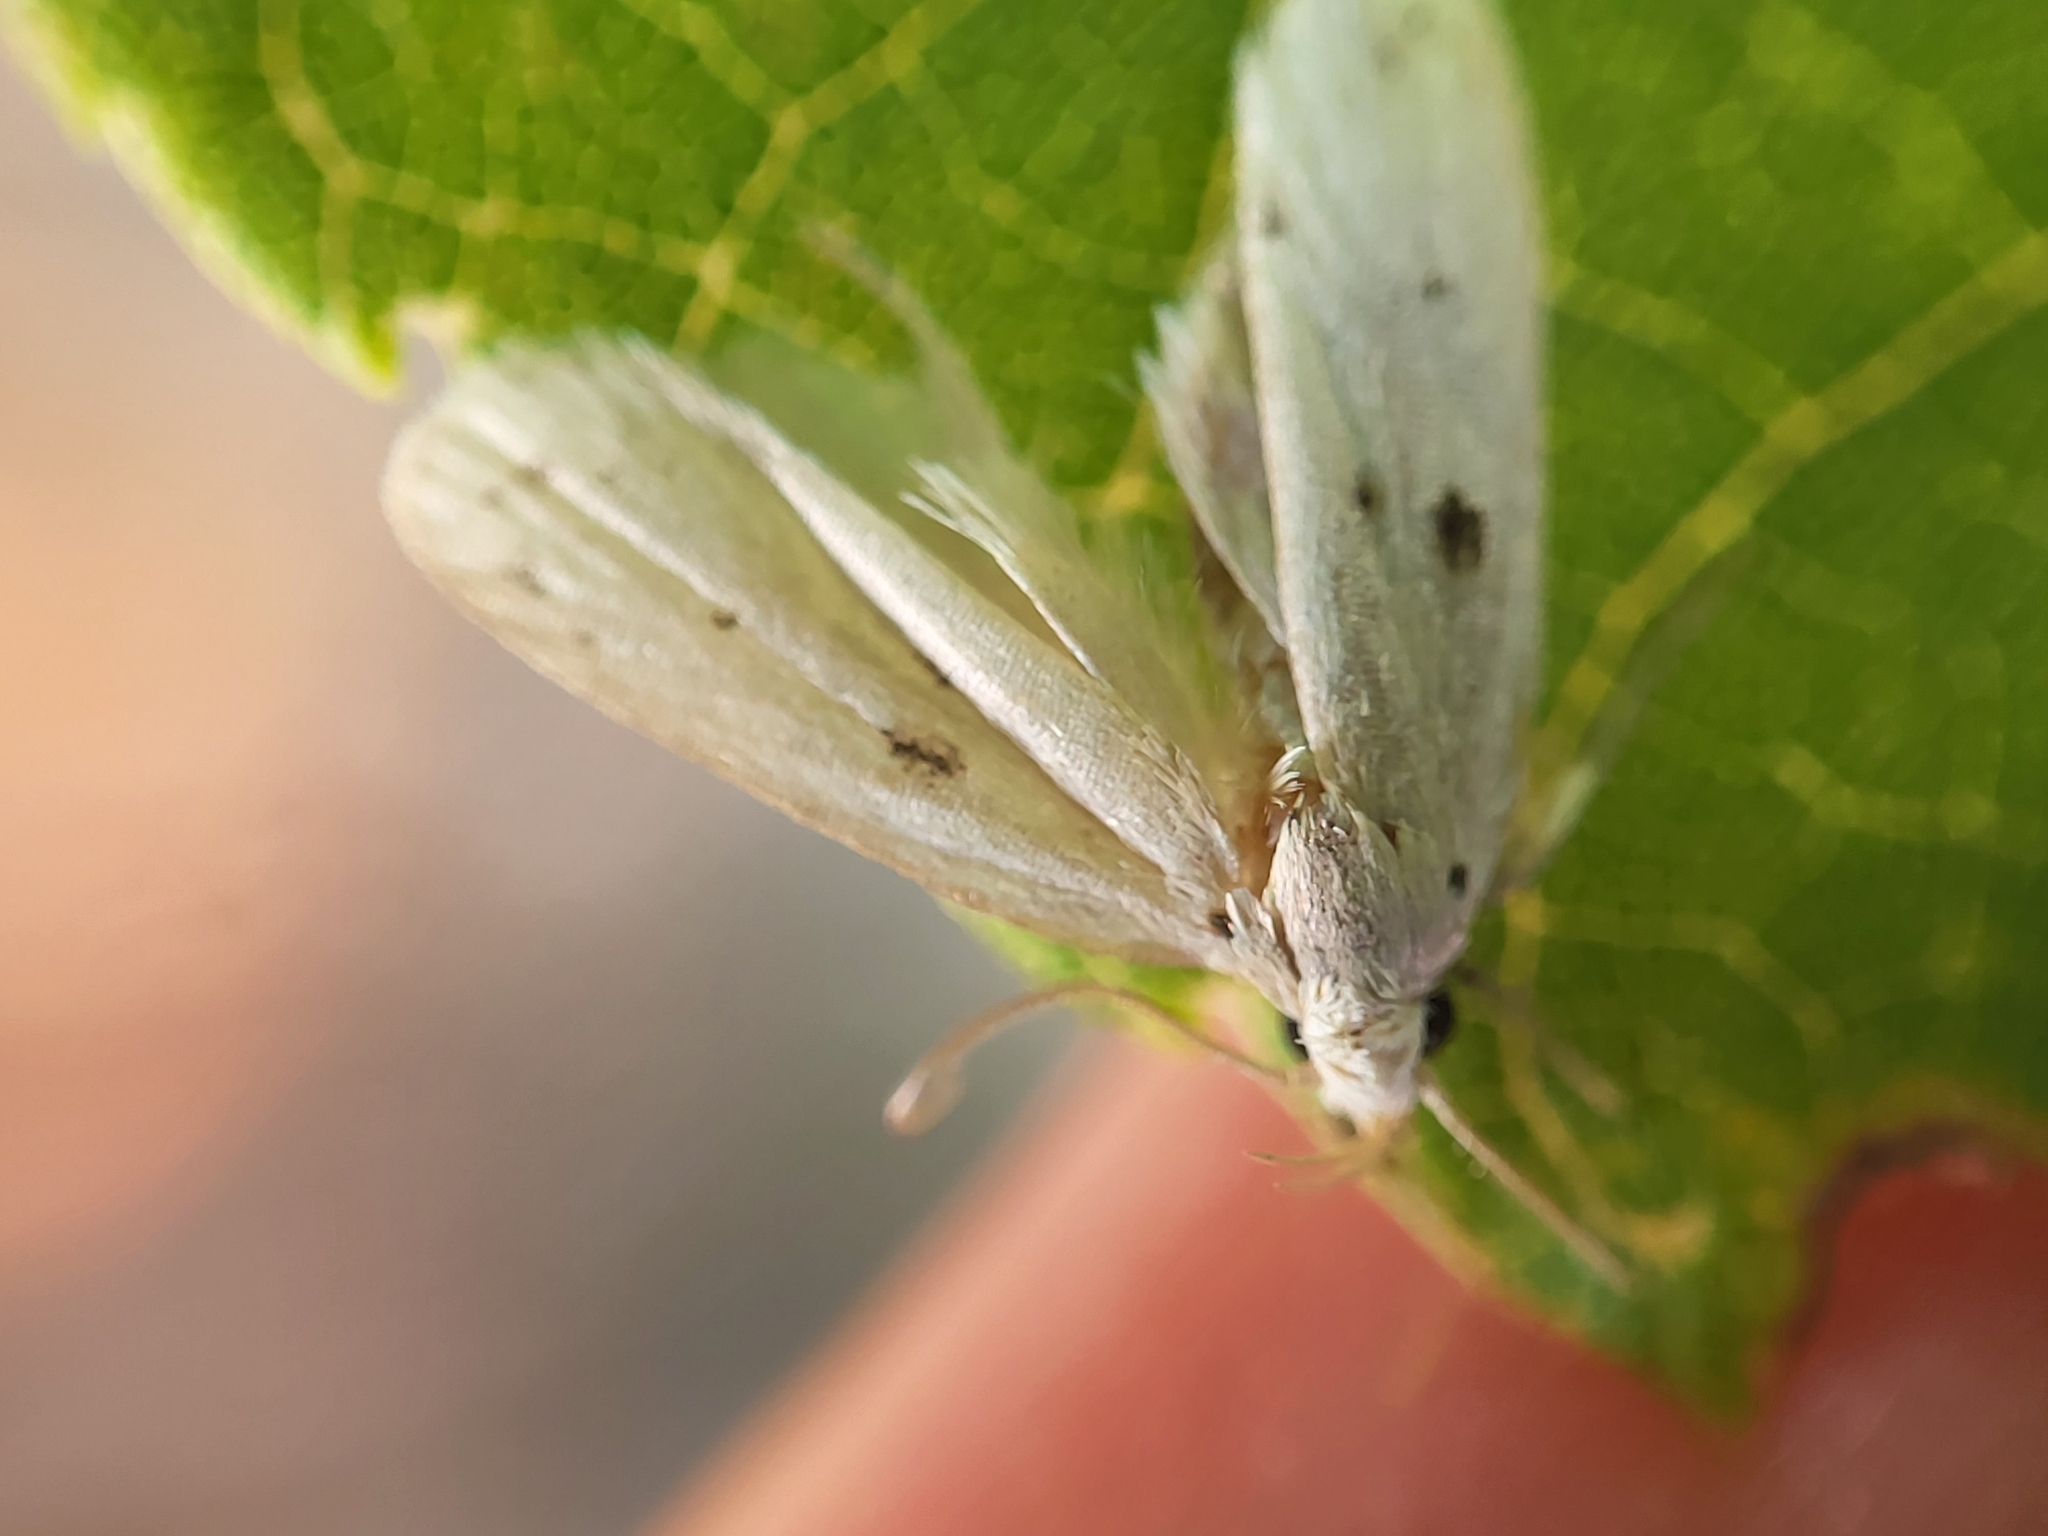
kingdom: Animalia
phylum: Arthropoda
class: Insecta
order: Lepidoptera
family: Peleopodidae
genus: Scythropiodes
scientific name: Scythropiodes issikii
